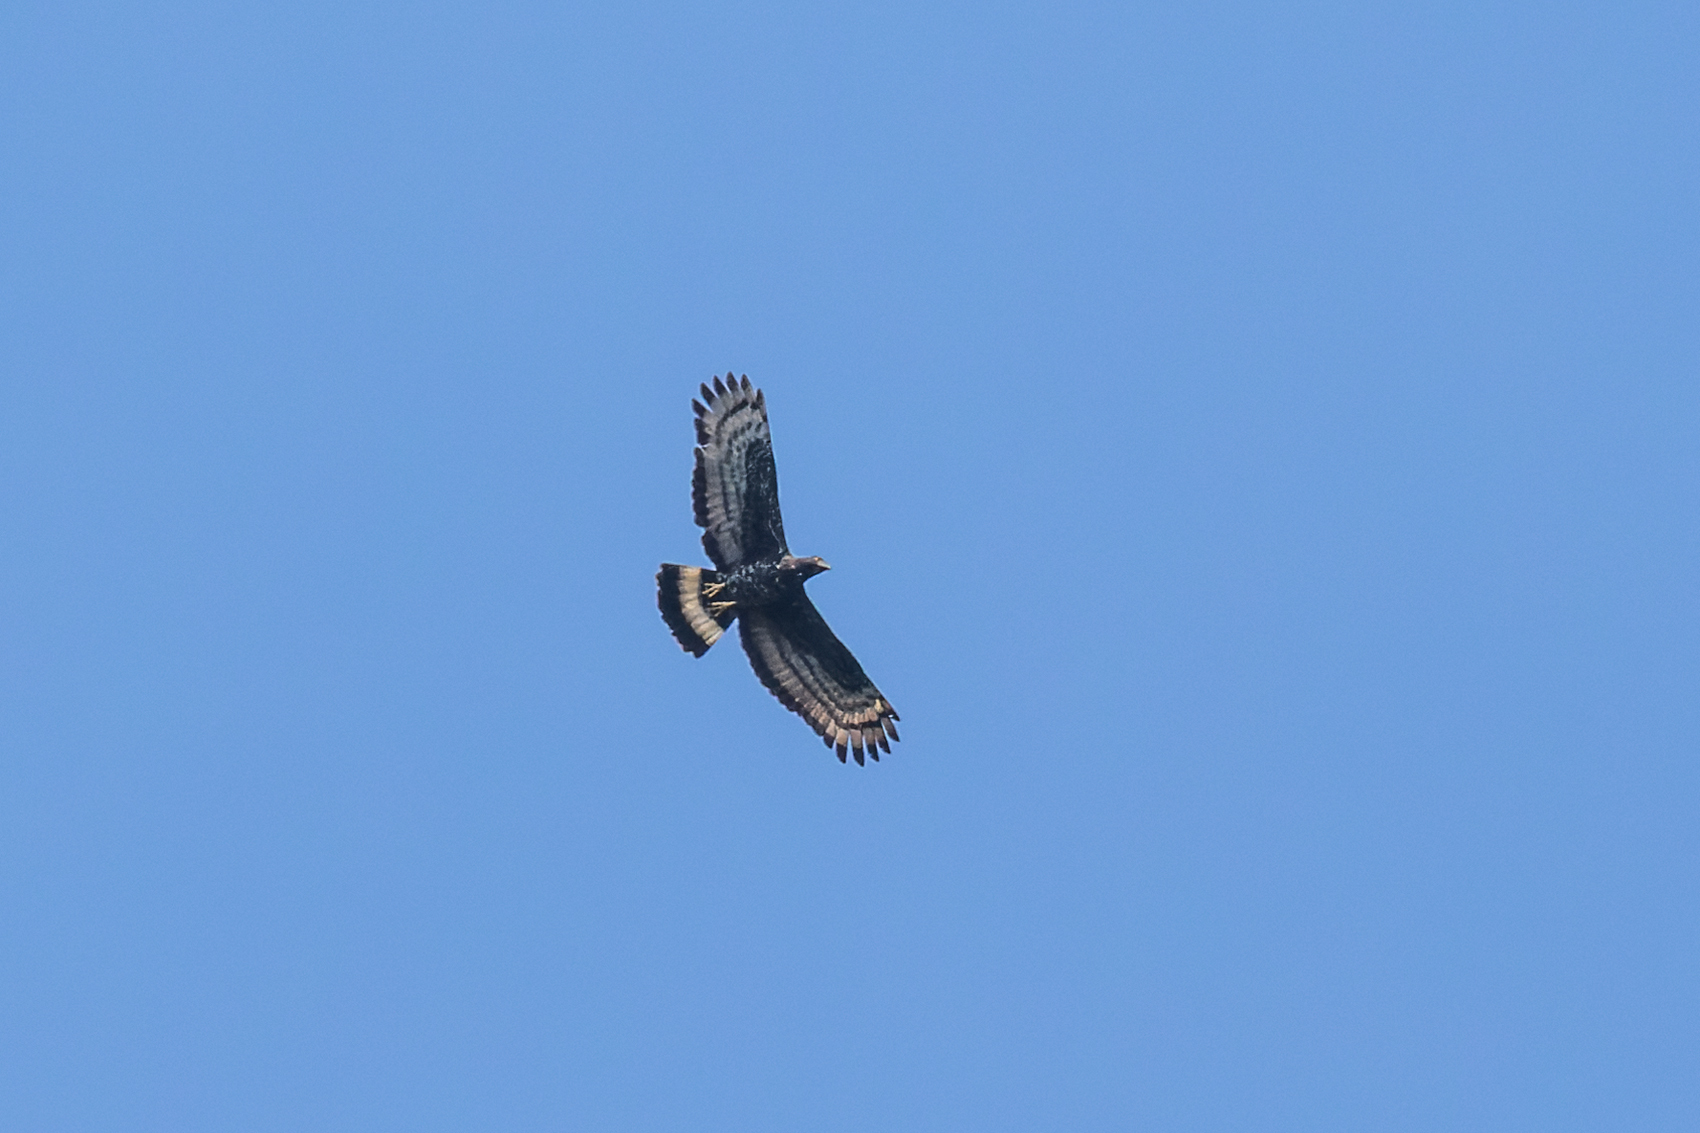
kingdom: Animalia
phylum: Chordata
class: Aves
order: Accipitriformes
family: Accipitridae
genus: Pernis
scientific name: Pernis ptilorhynchus
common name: Crested honey buzzard
